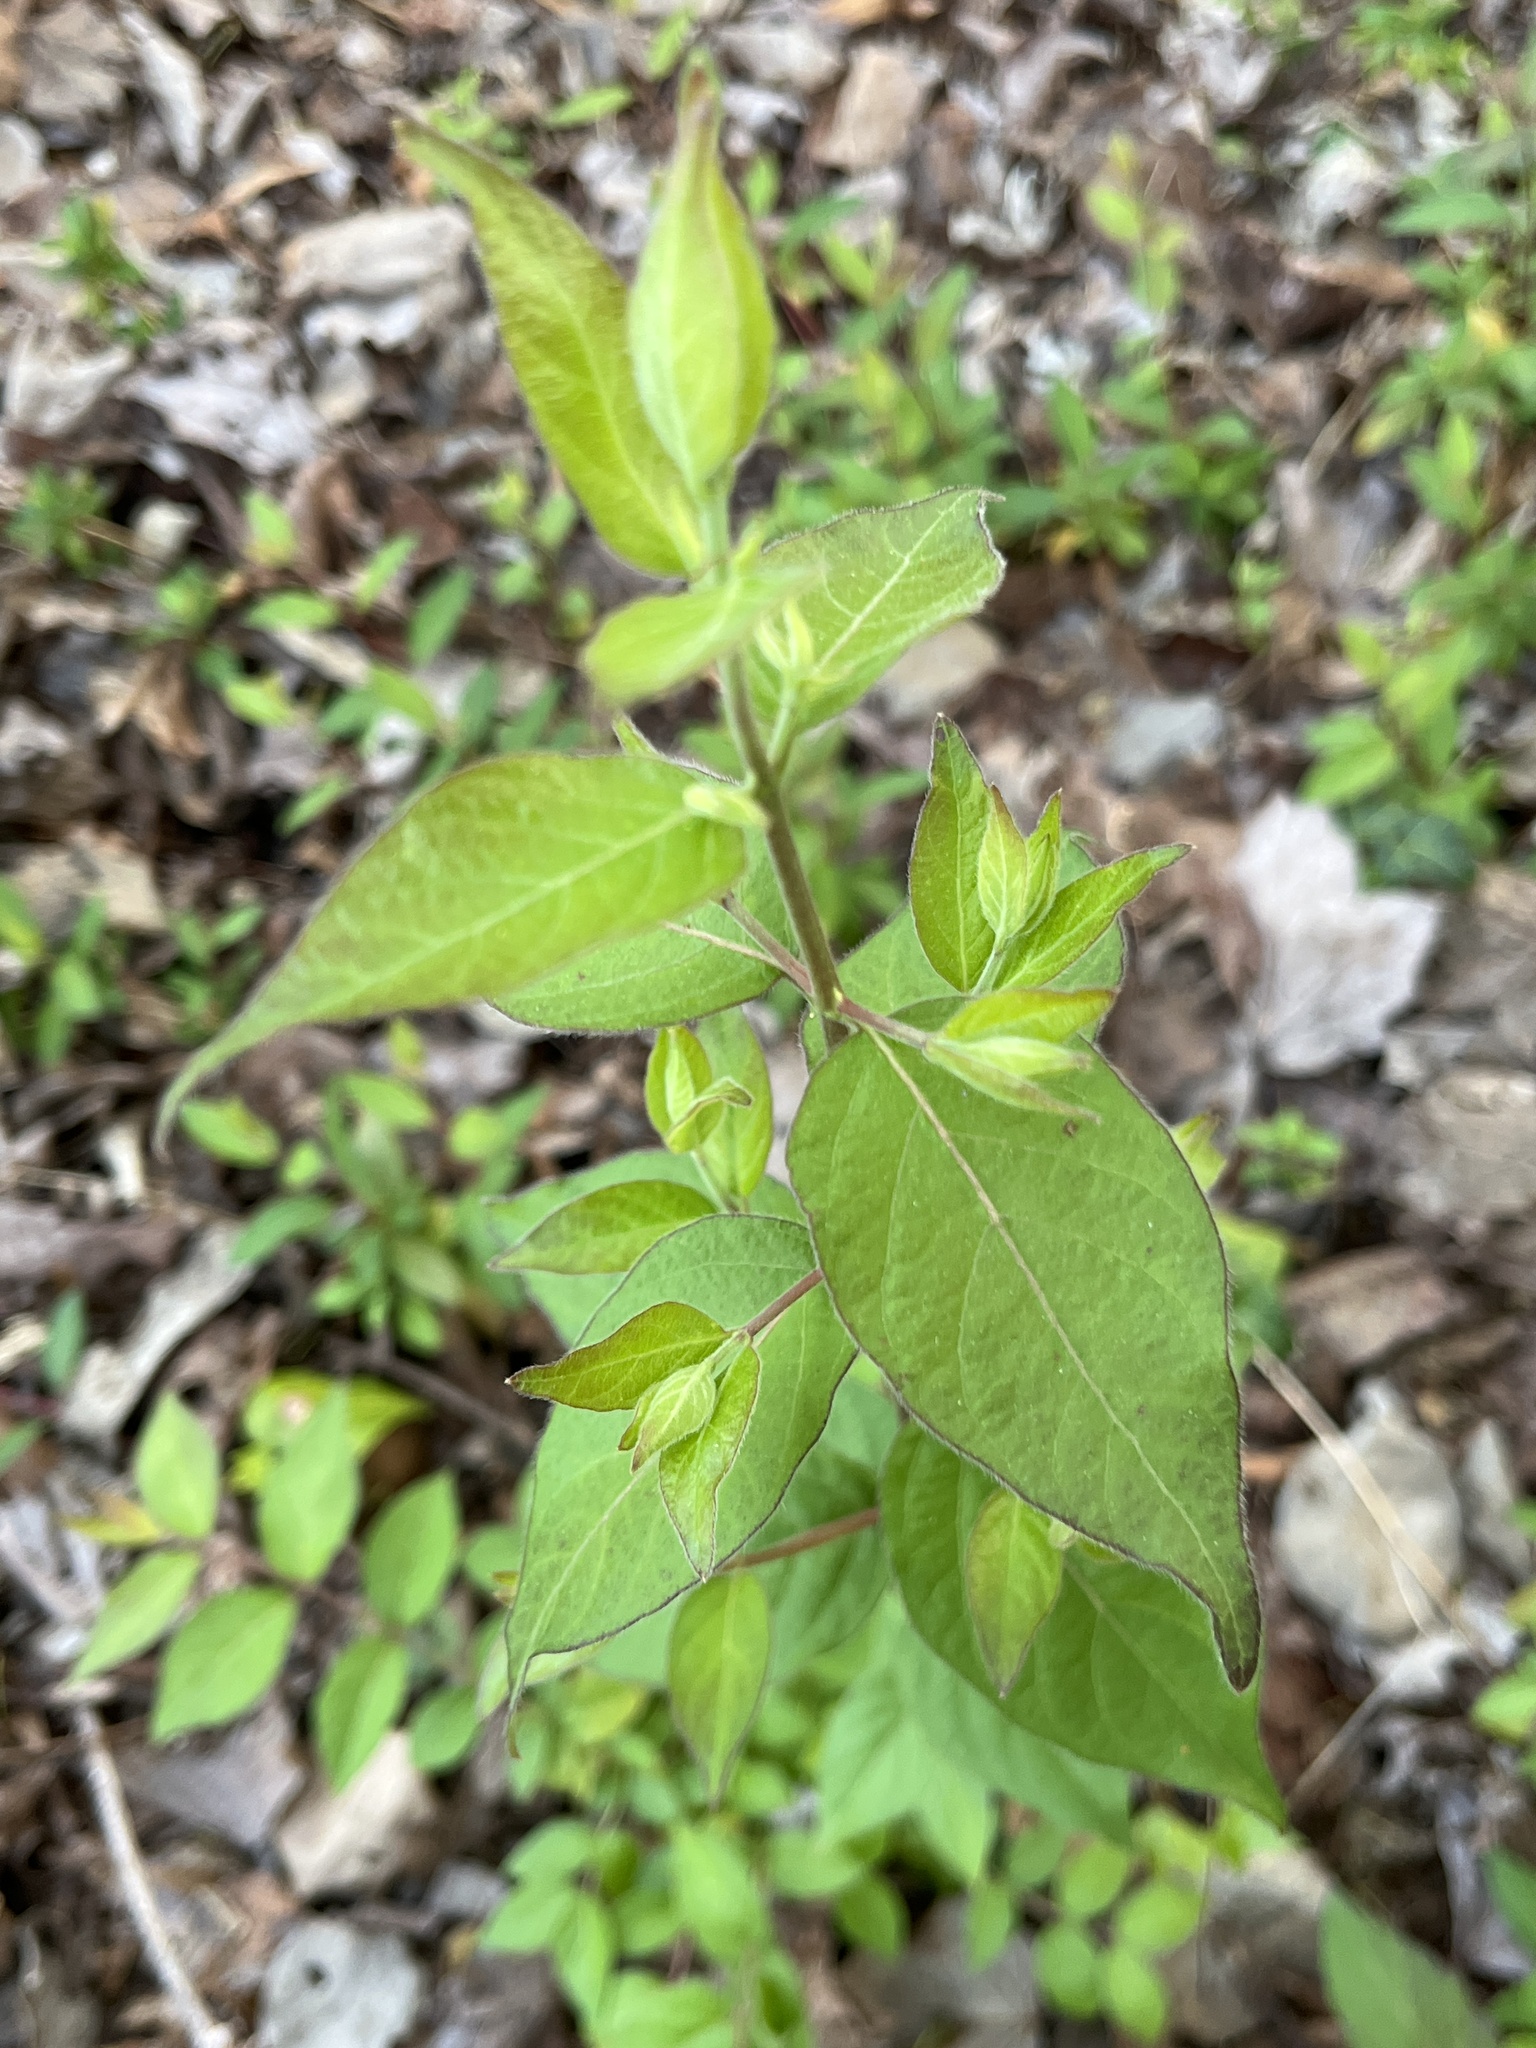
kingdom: Plantae
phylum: Tracheophyta
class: Magnoliopsida
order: Dipsacales
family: Caprifoliaceae
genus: Lonicera
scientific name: Lonicera maackii
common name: Amur honeysuckle
